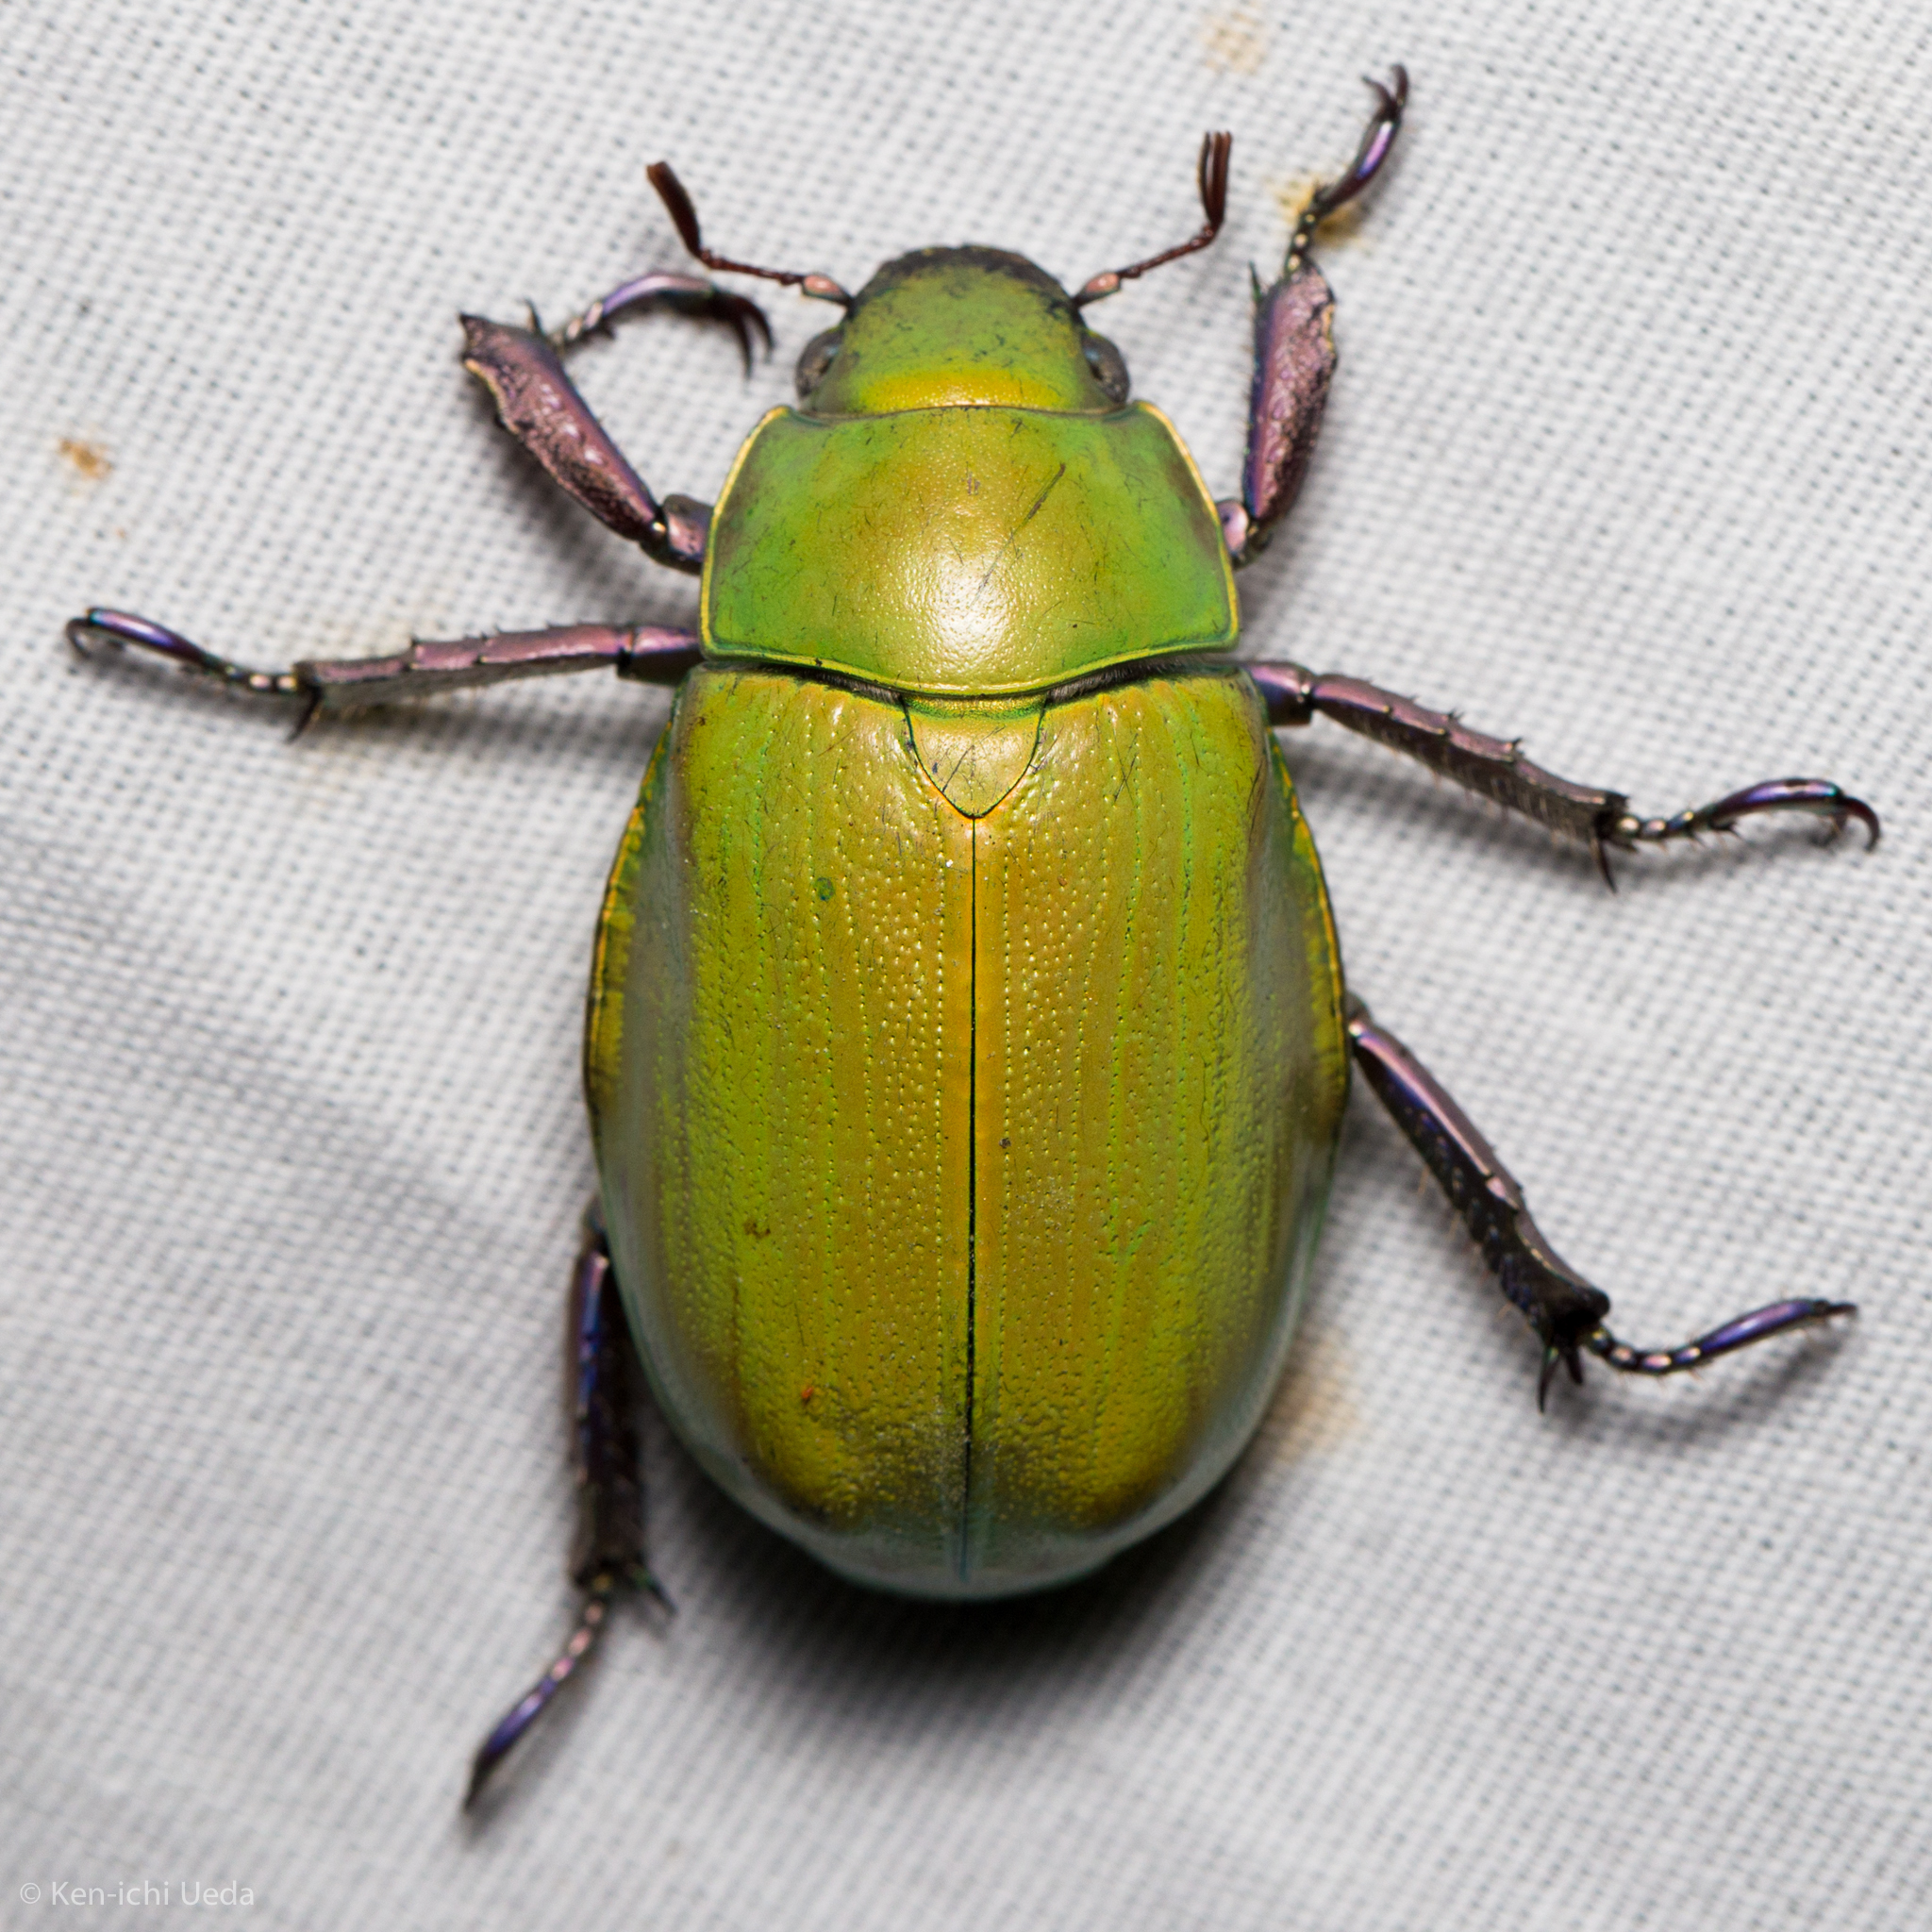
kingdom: Animalia
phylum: Arthropoda
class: Insecta
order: Coleoptera
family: Scarabaeidae
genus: Chrysina
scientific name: Chrysina beyeri
